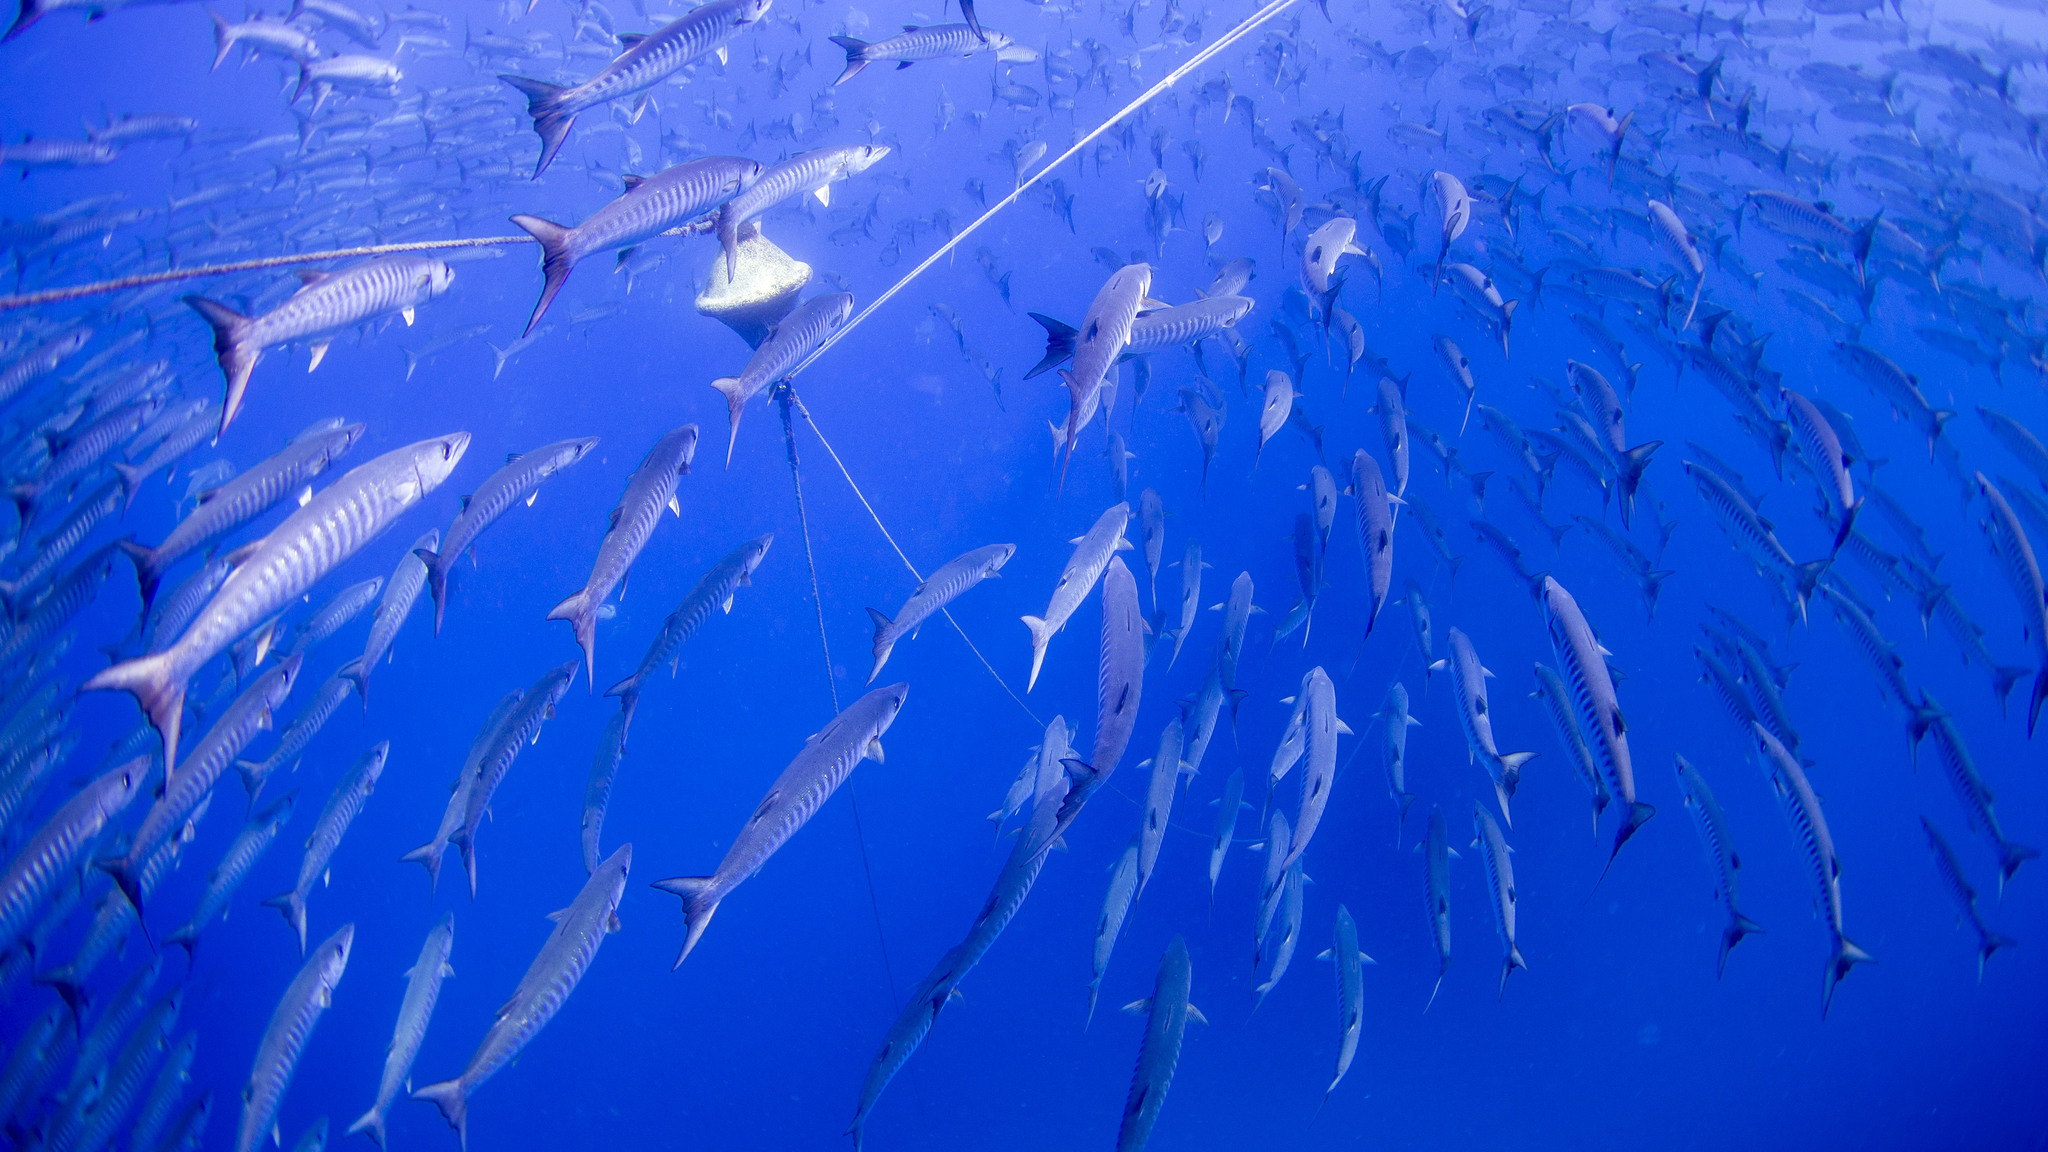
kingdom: Animalia
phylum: Chordata
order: Perciformes
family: Sphyraenidae
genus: Sphyraena
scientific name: Sphyraena qenie
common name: Blackfin barracuda
